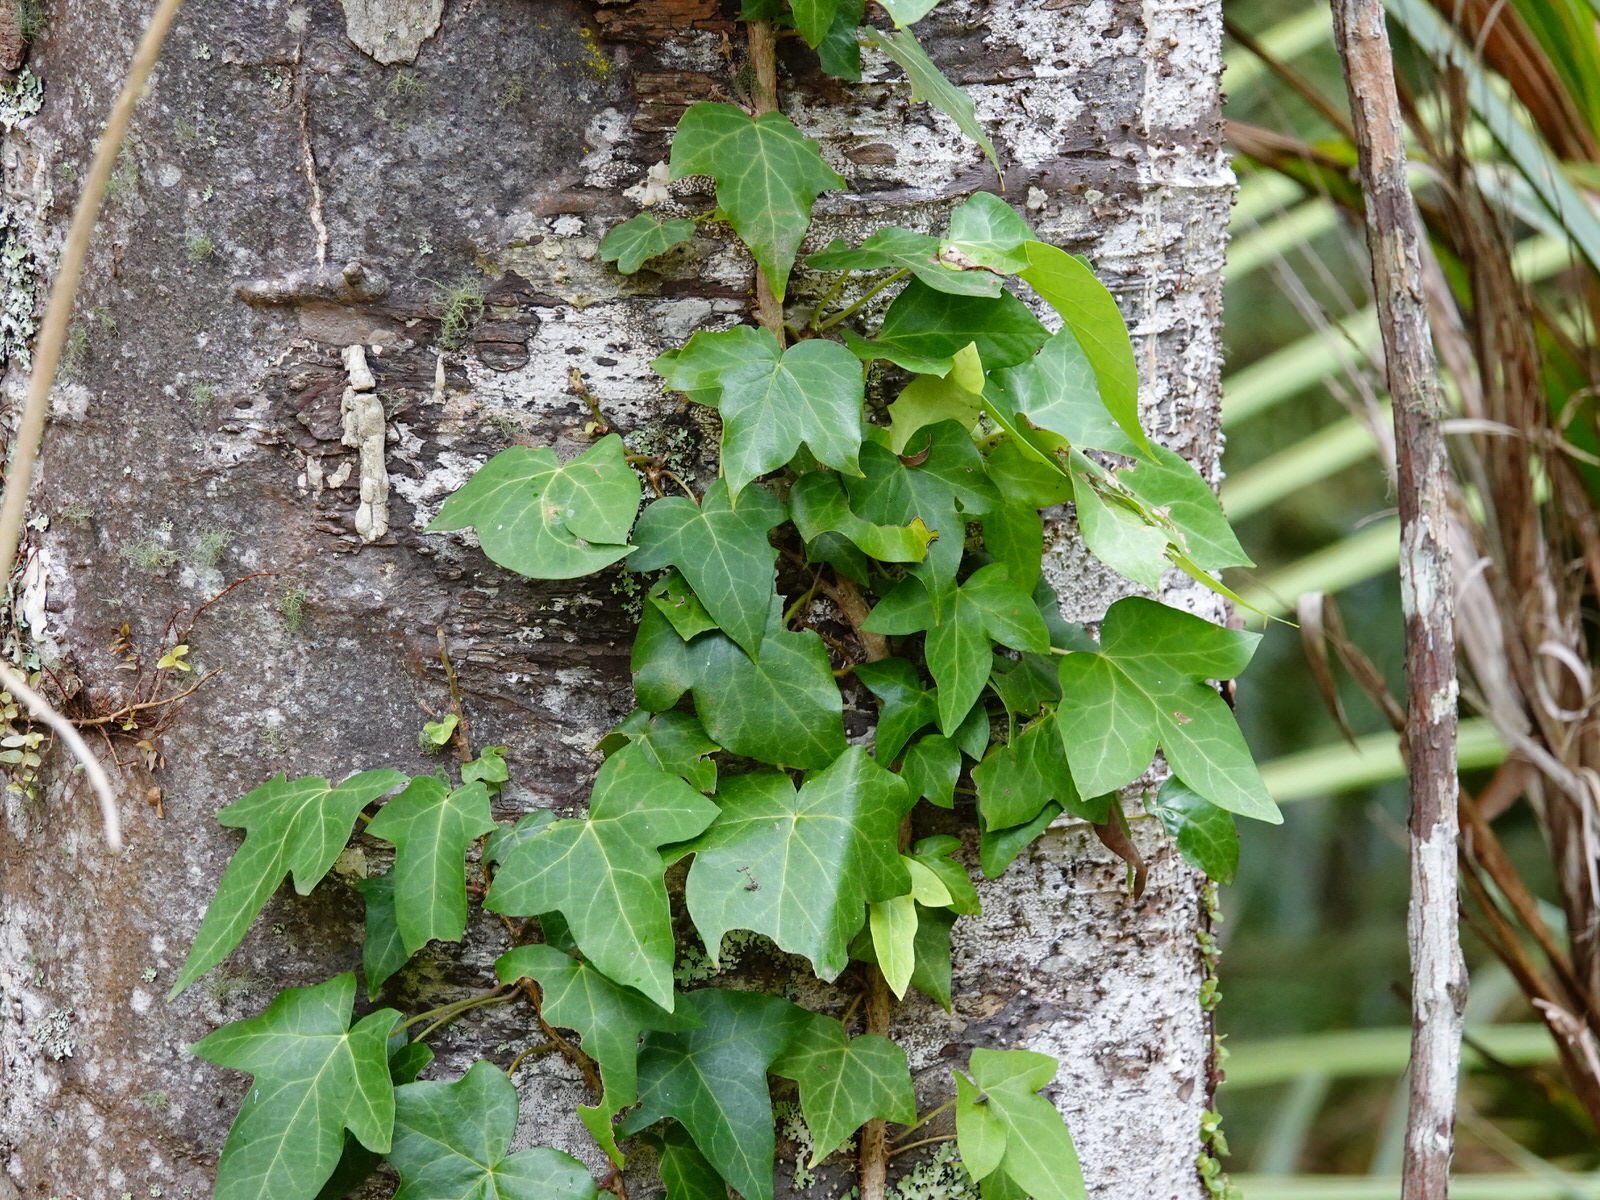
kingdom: Plantae
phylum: Tracheophyta
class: Magnoliopsida
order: Apiales
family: Araliaceae
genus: Hedera
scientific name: Hedera helix
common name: Ivy
